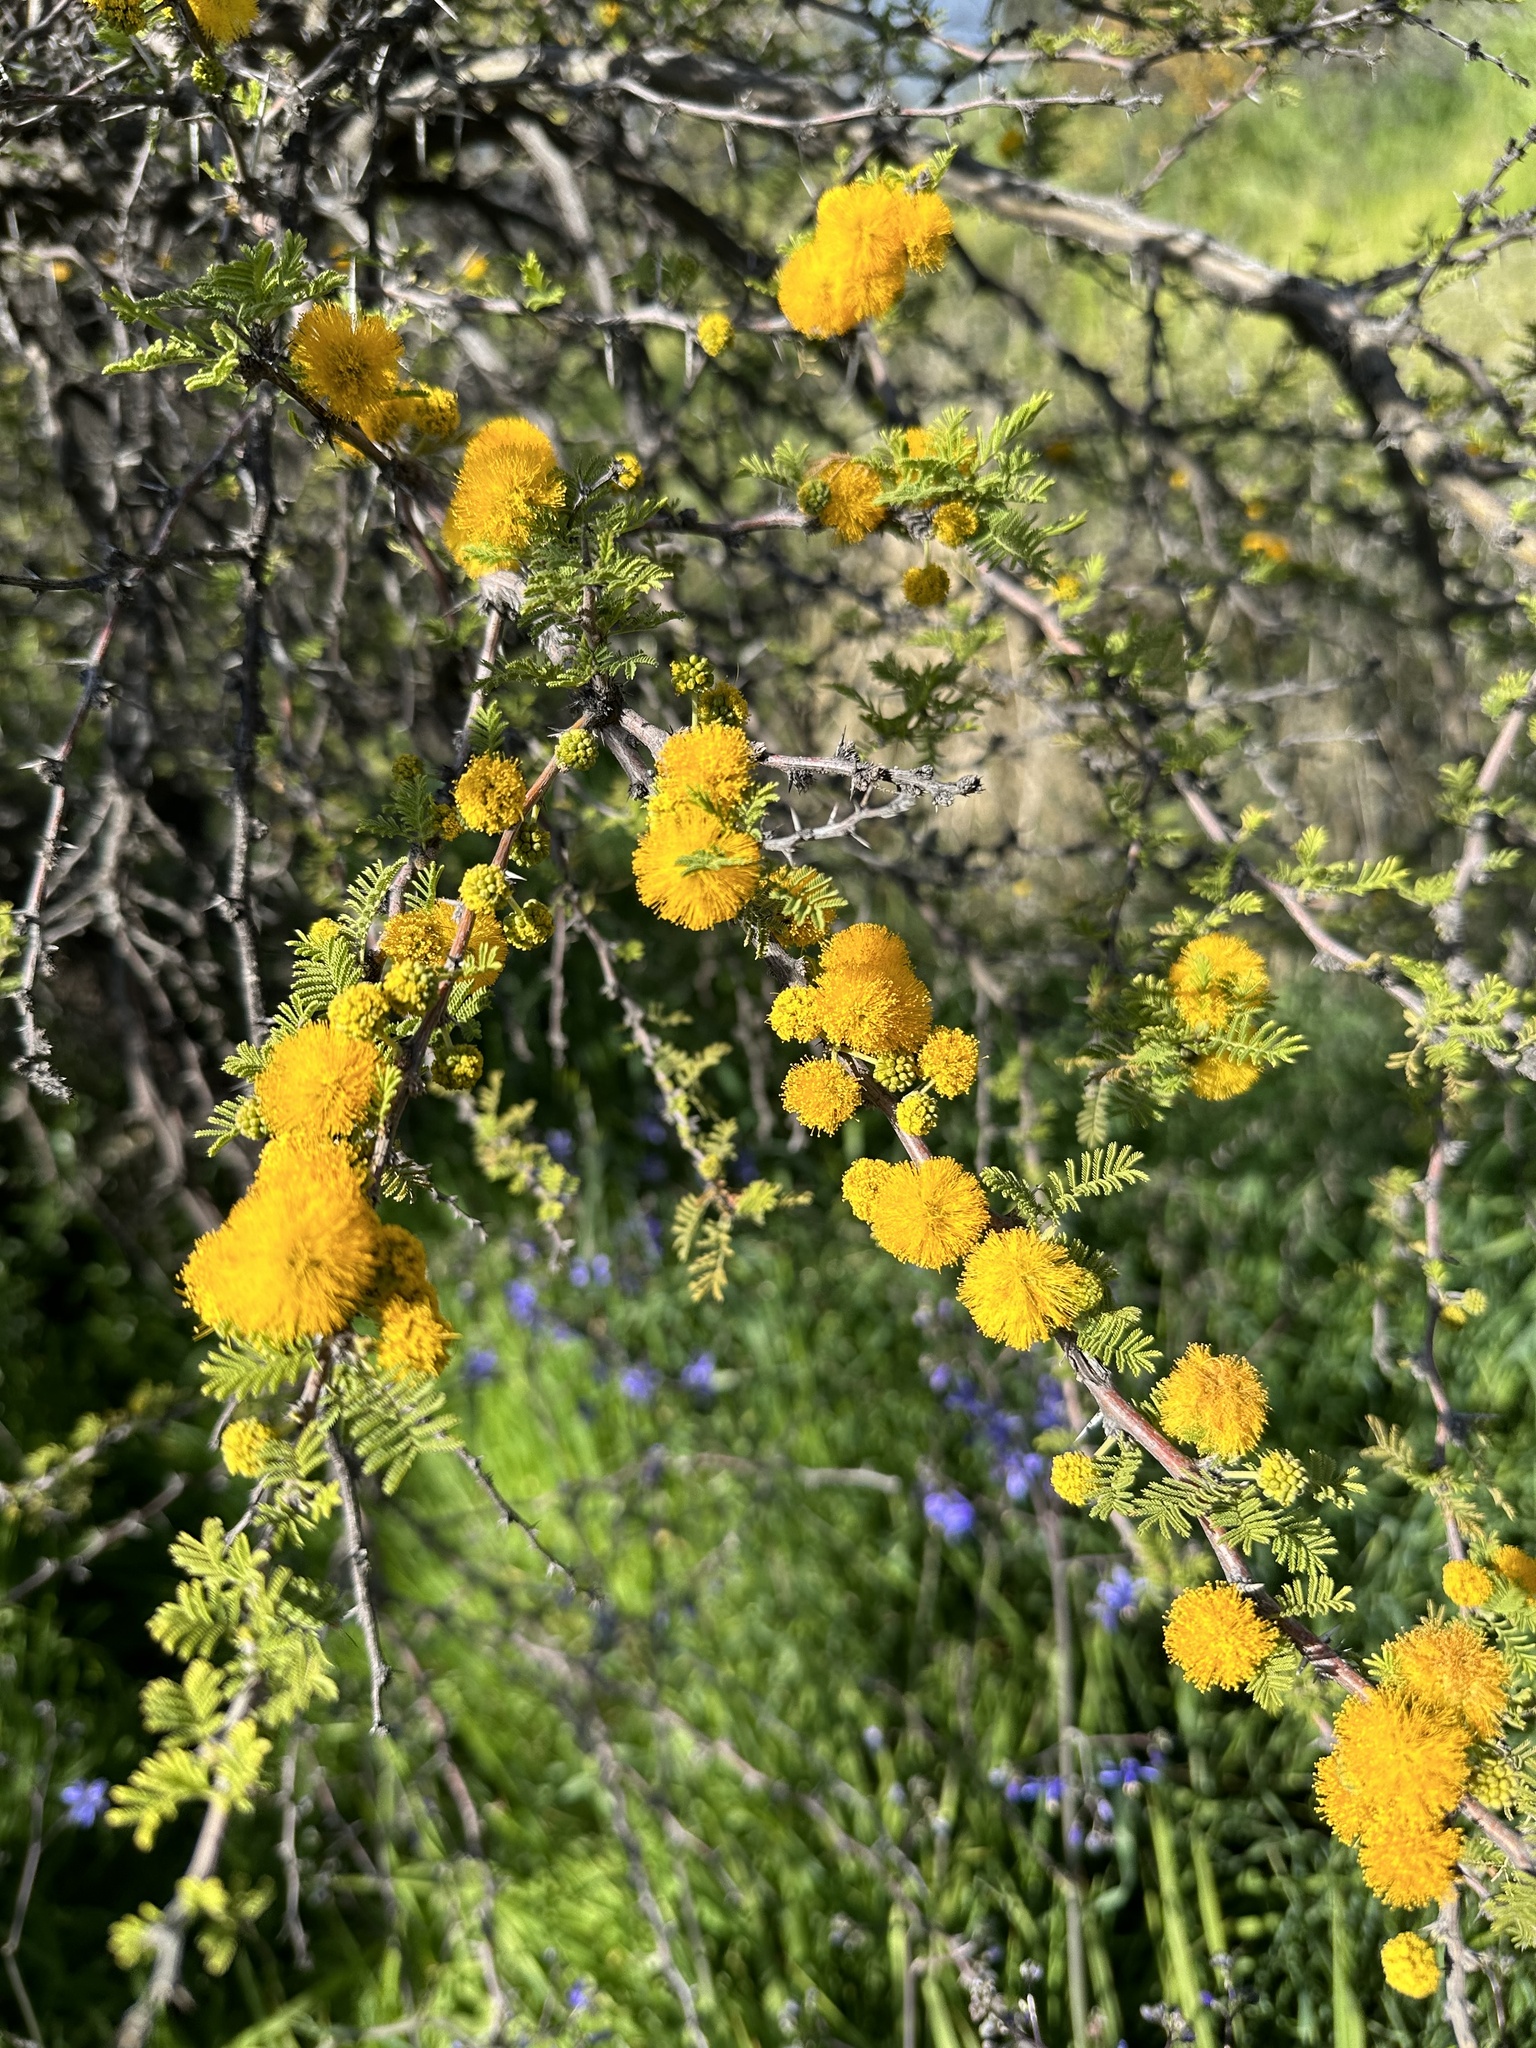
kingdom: Plantae
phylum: Tracheophyta
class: Magnoliopsida
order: Fabales
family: Fabaceae
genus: Vachellia
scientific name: Vachellia caven
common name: Roman cassie
